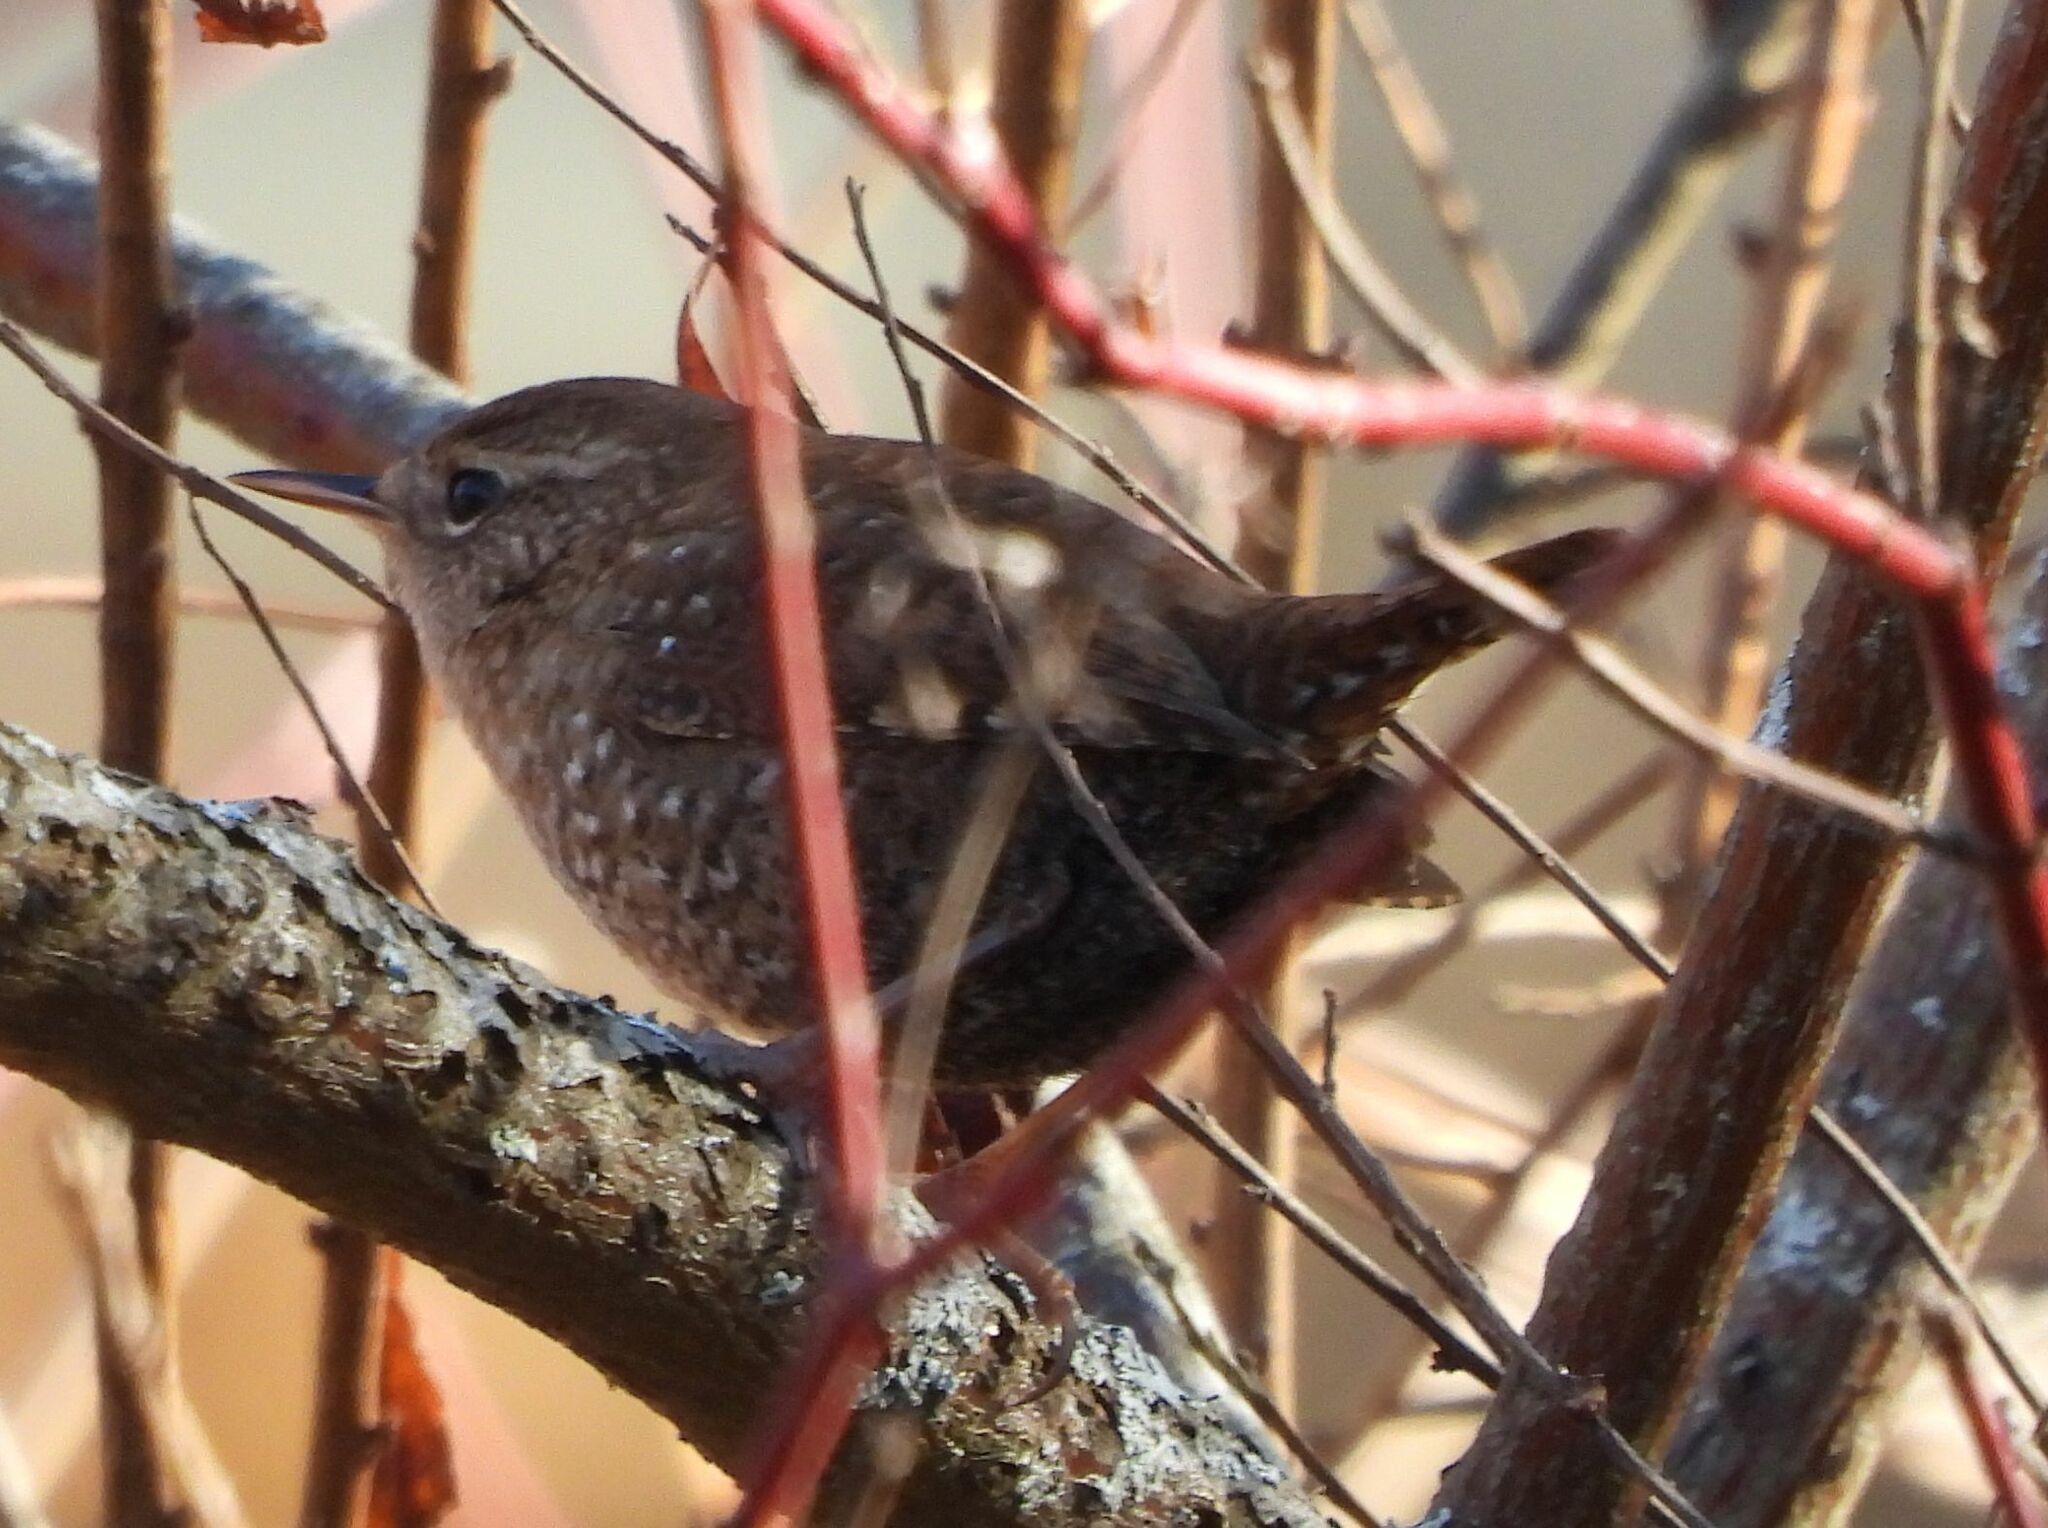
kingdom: Animalia
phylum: Chordata
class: Aves
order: Passeriformes
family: Troglodytidae
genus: Troglodytes
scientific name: Troglodytes hiemalis
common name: Winter wren
